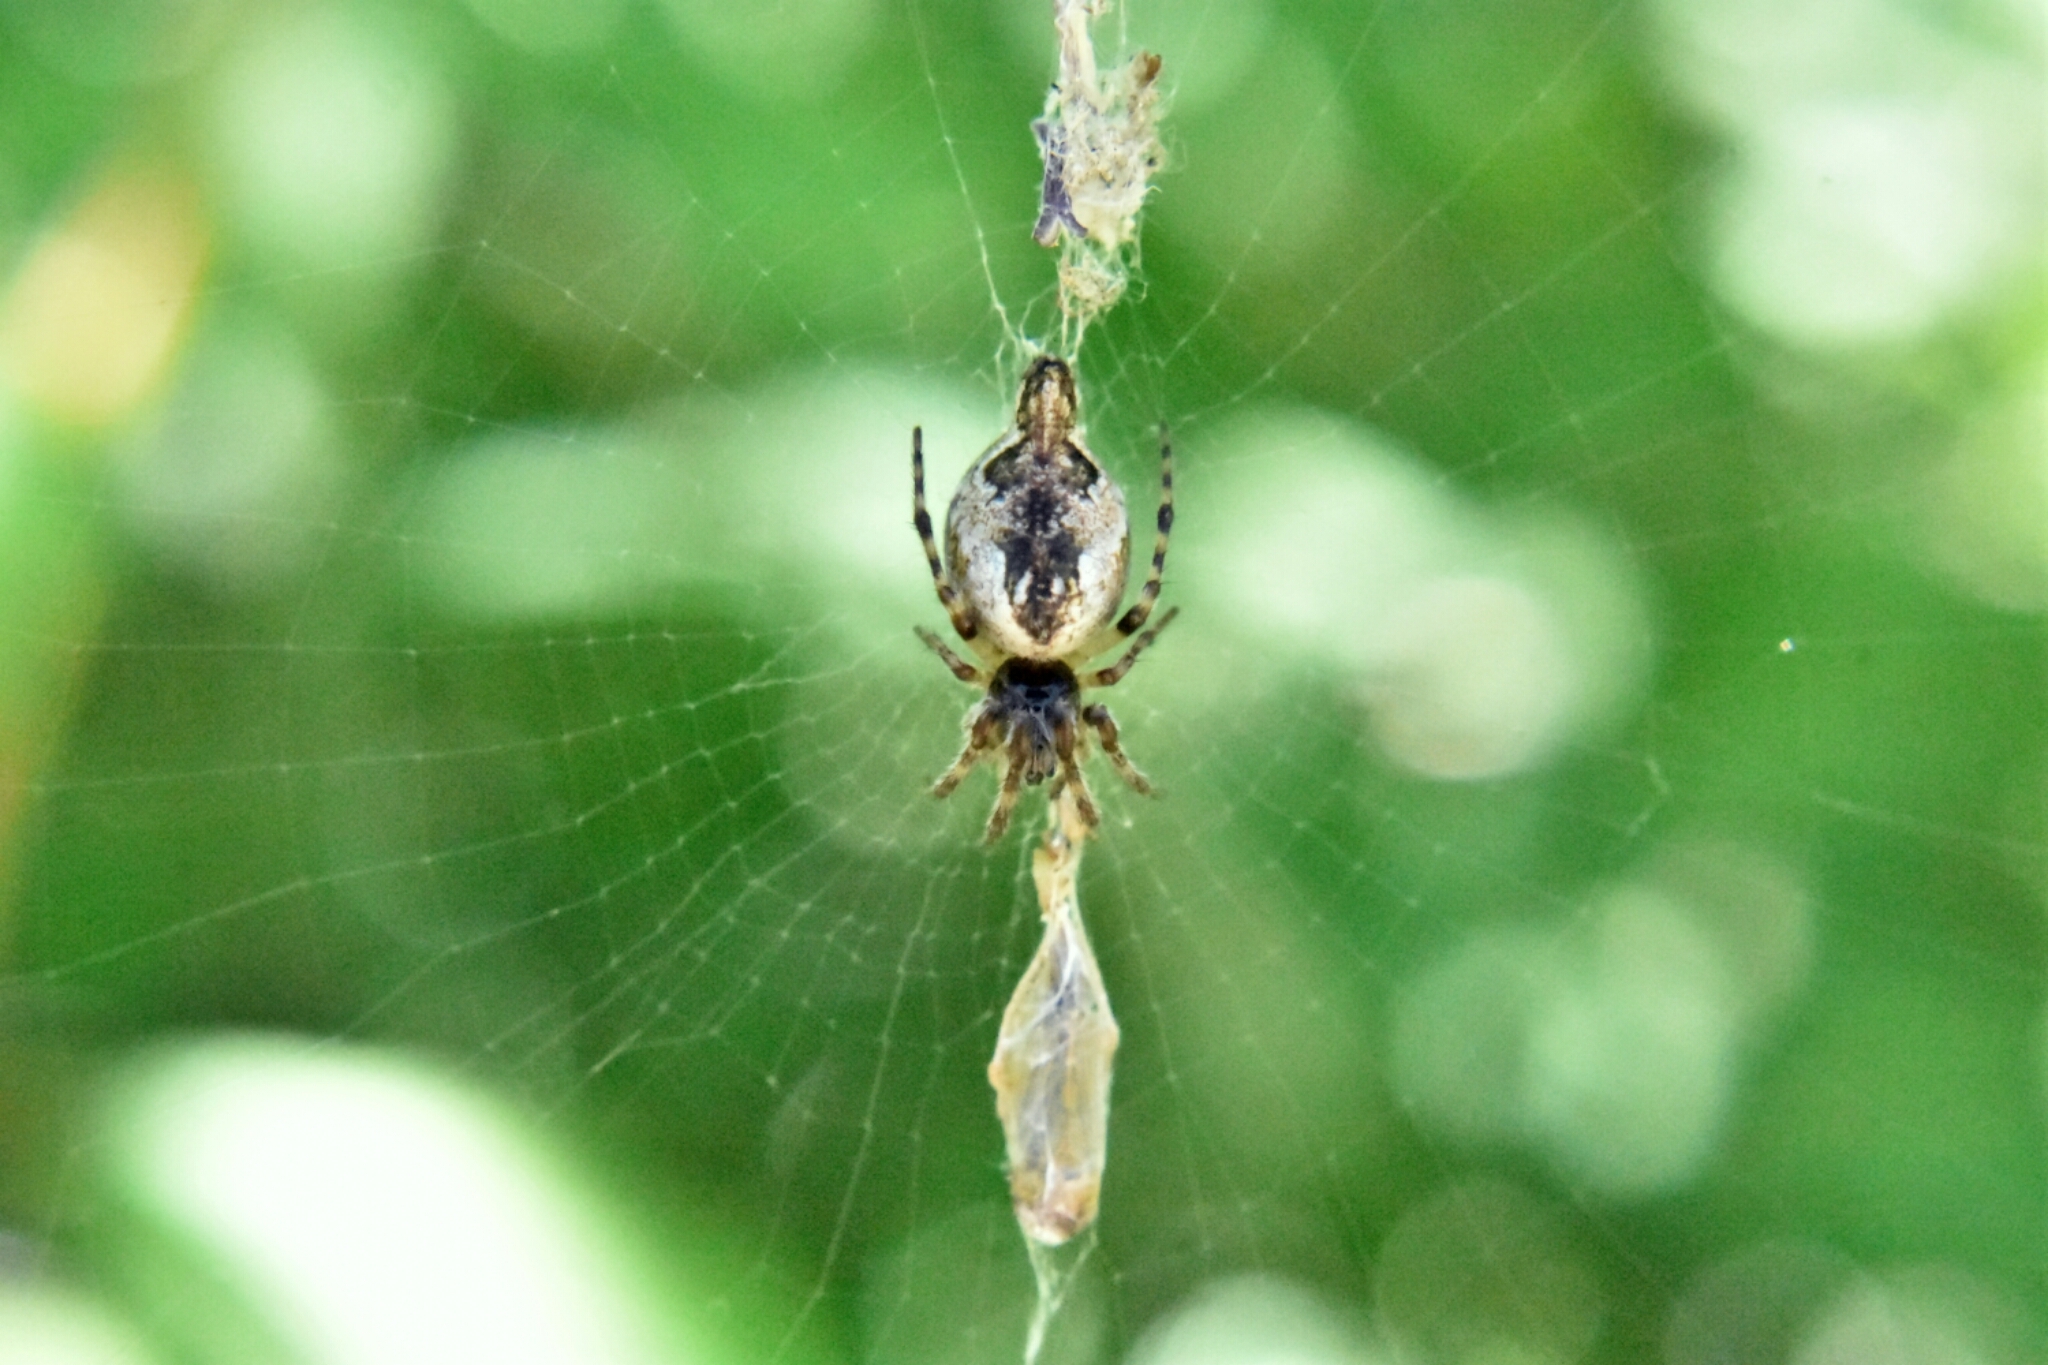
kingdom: Animalia
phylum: Arthropoda
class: Arachnida
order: Araneae
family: Araneidae
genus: Cyclosa
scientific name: Cyclosa conica
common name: Conical trashline orbweaver
